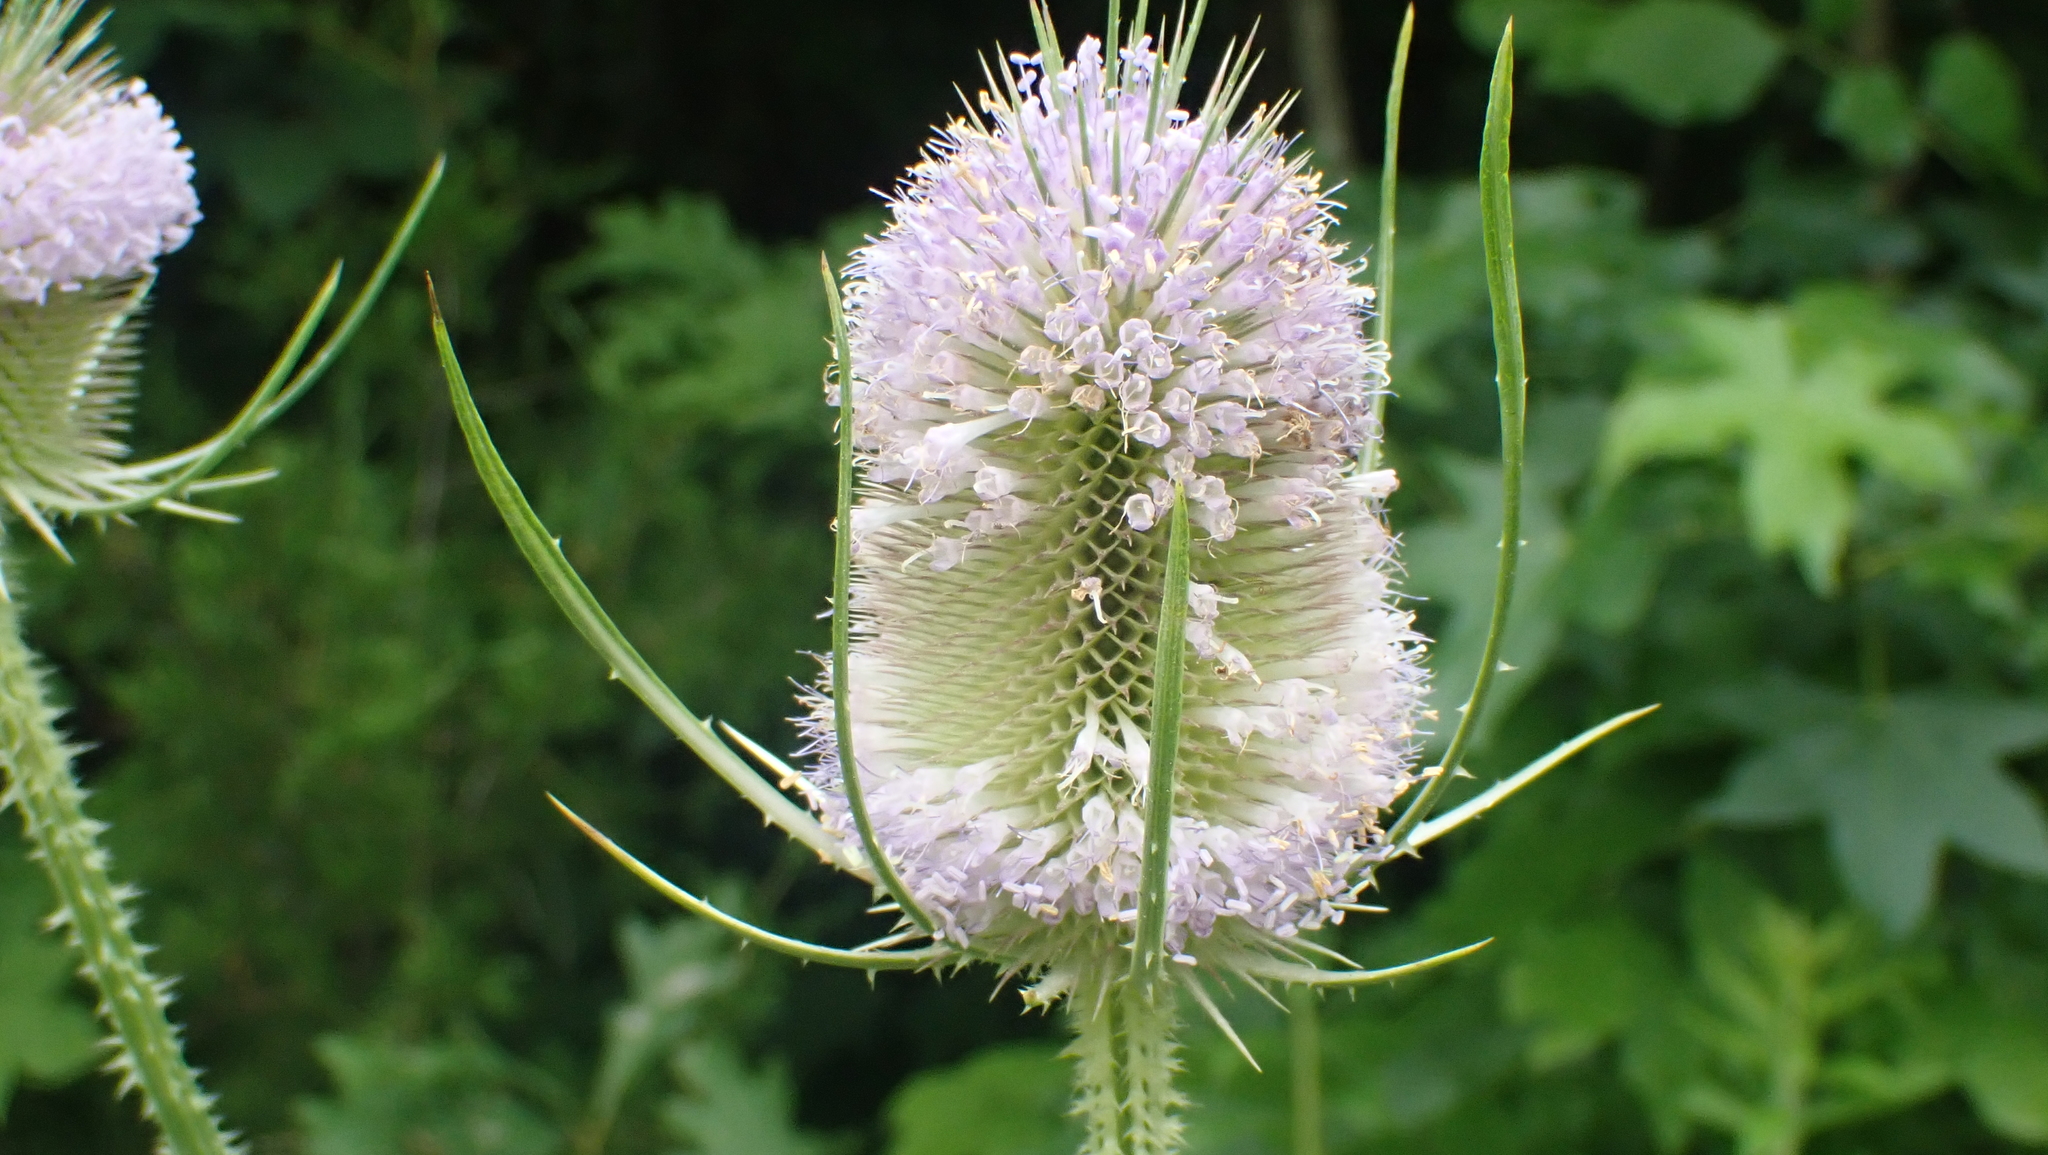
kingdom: Plantae
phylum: Tracheophyta
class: Magnoliopsida
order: Dipsacales
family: Caprifoliaceae
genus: Dipsacus
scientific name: Dipsacus fullonum
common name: Teasel
